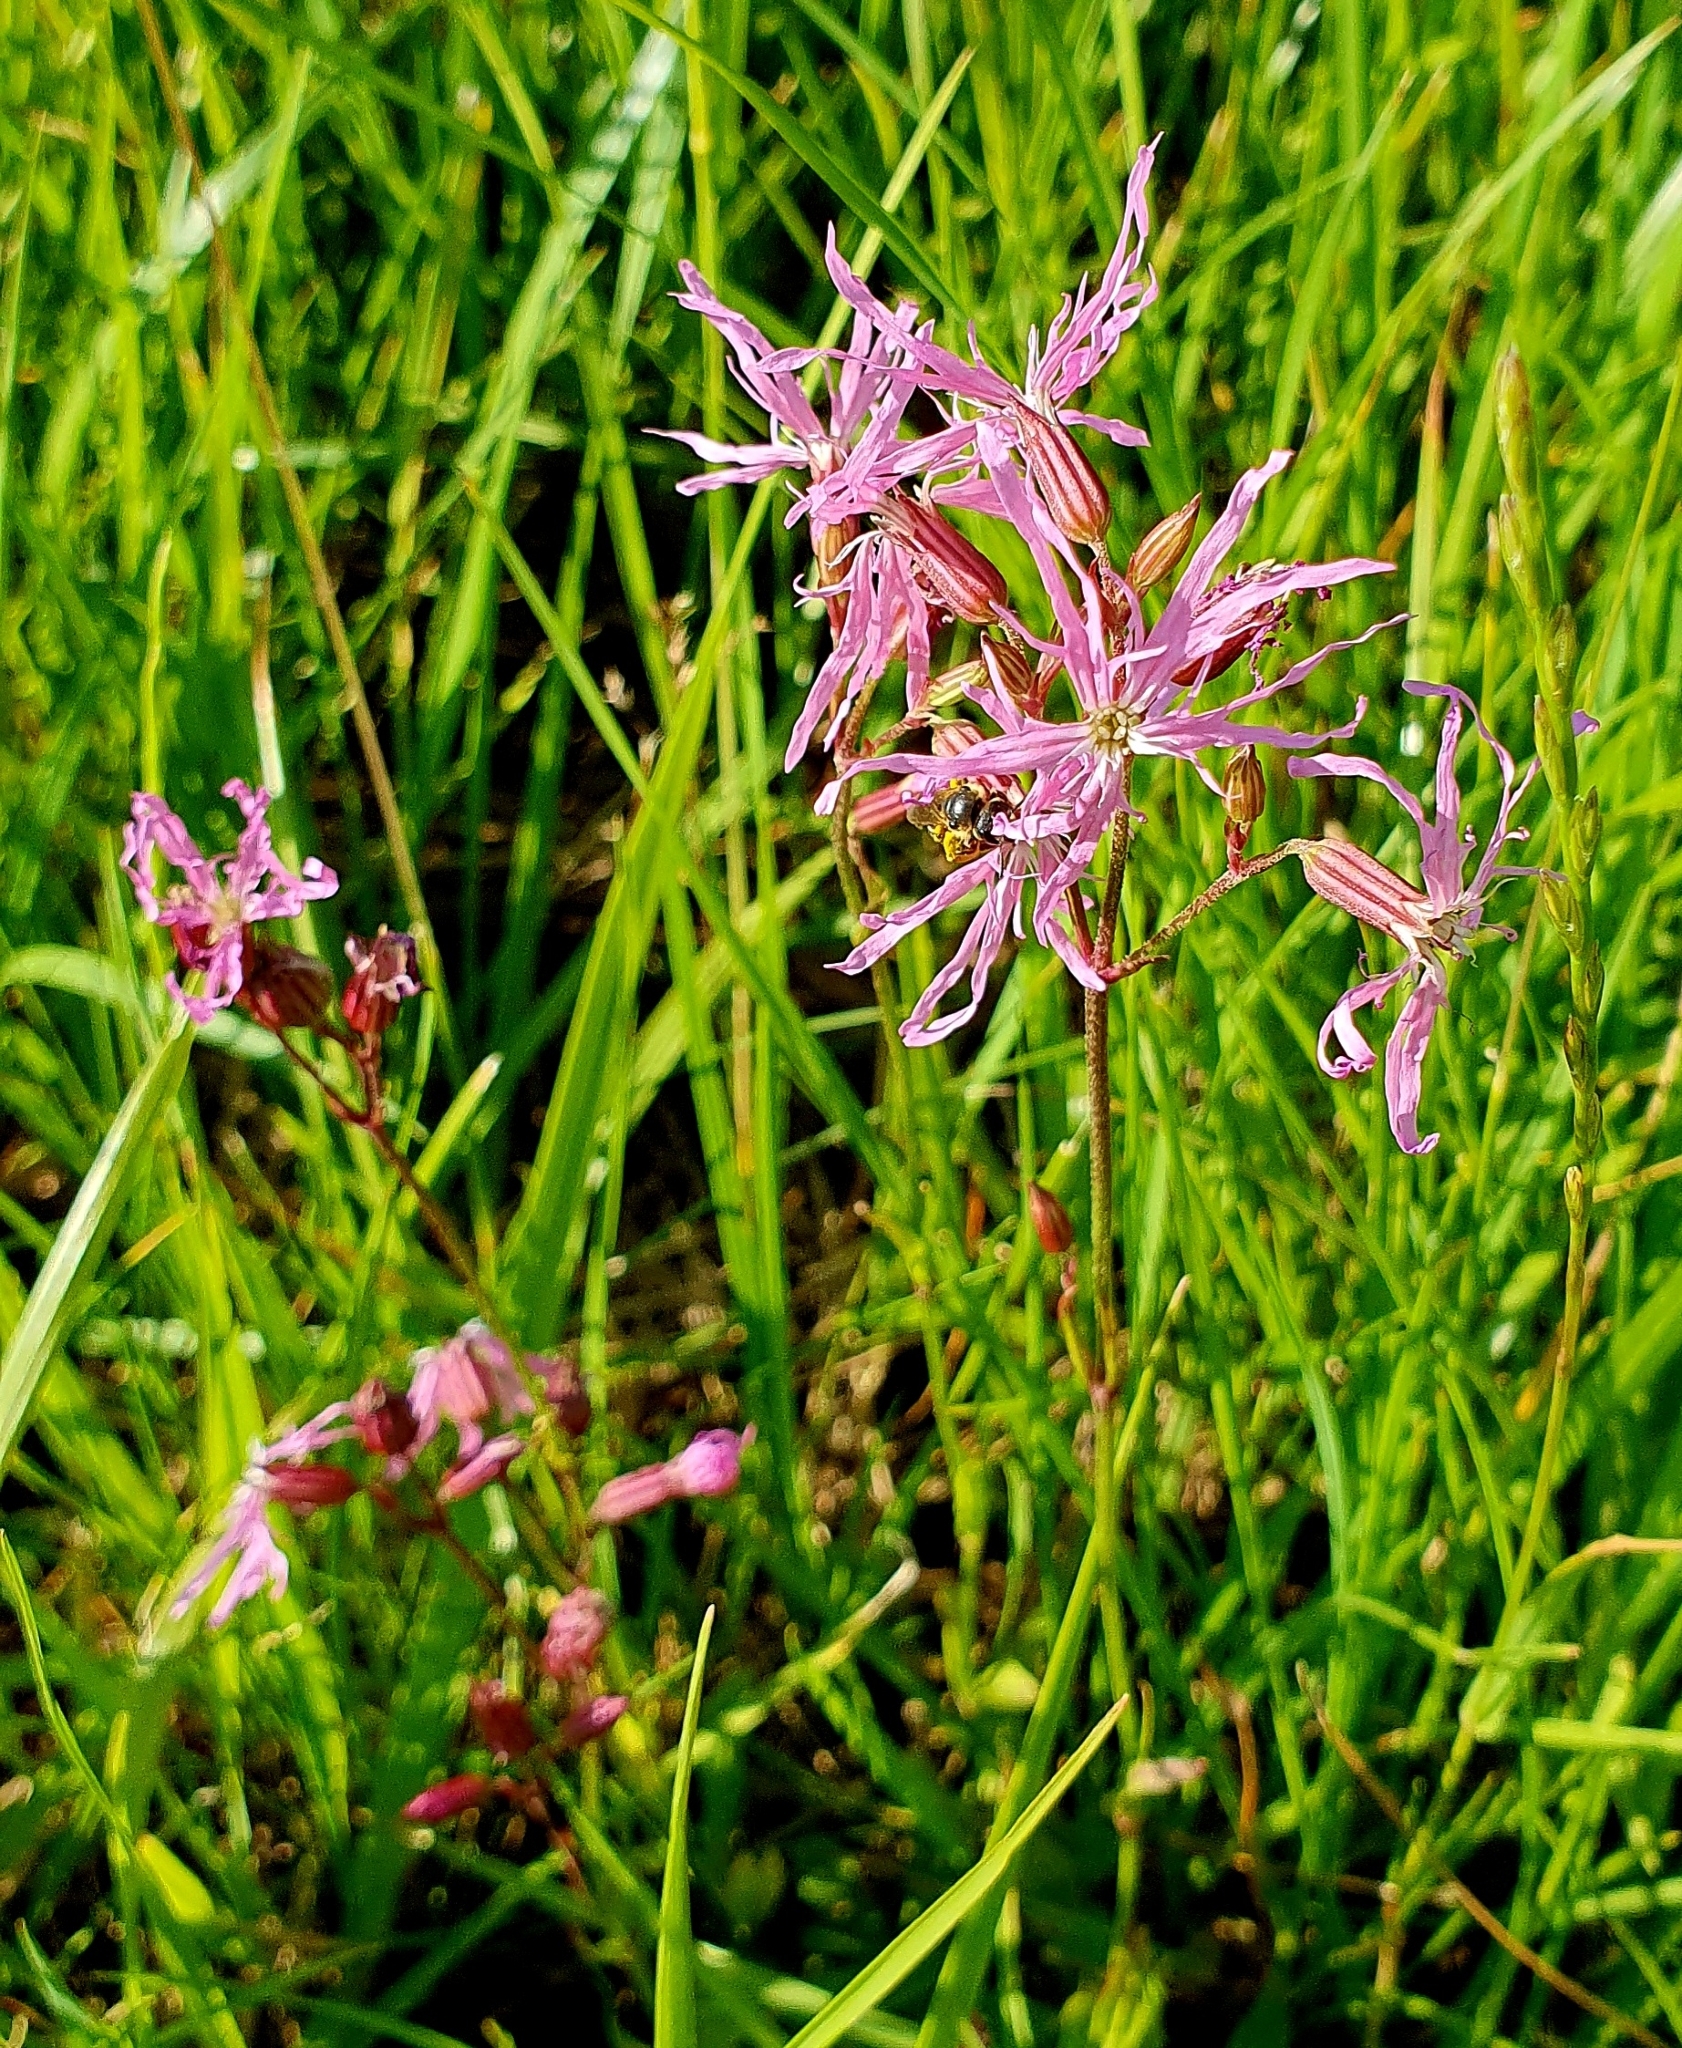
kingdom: Plantae
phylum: Tracheophyta
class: Magnoliopsida
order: Caryophyllales
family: Caryophyllaceae
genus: Silene
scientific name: Silene flos-cuculi
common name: Ragged-robin
